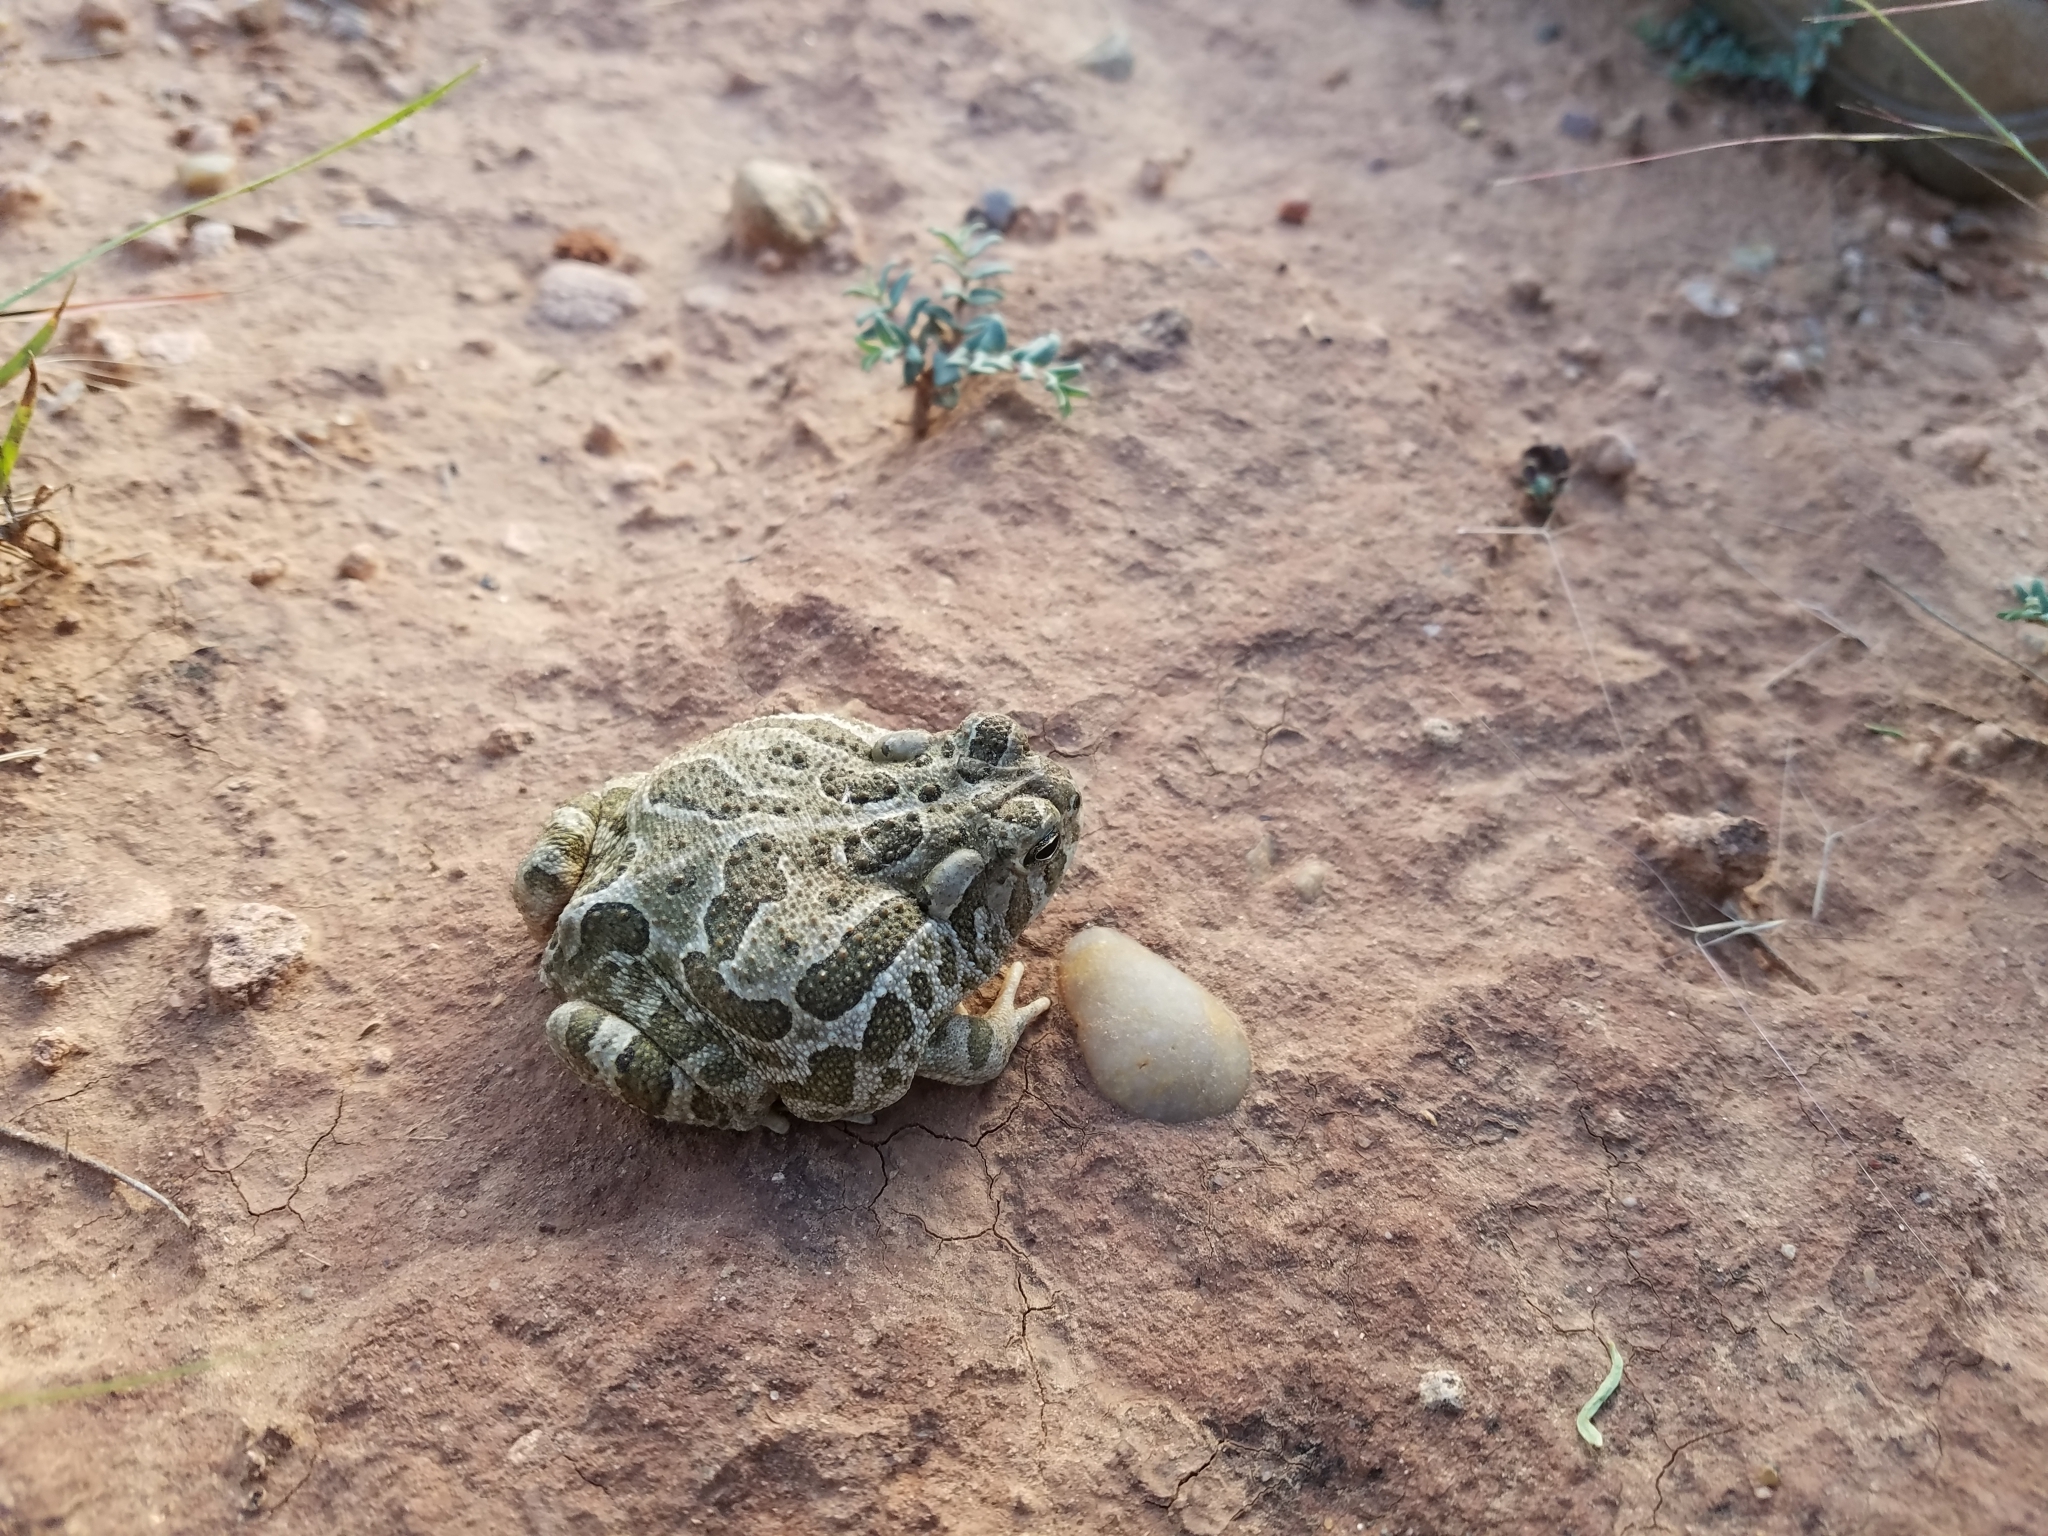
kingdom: Animalia
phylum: Chordata
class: Amphibia
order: Anura
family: Bufonidae
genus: Anaxyrus
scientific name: Anaxyrus cognatus
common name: Great plains toad
